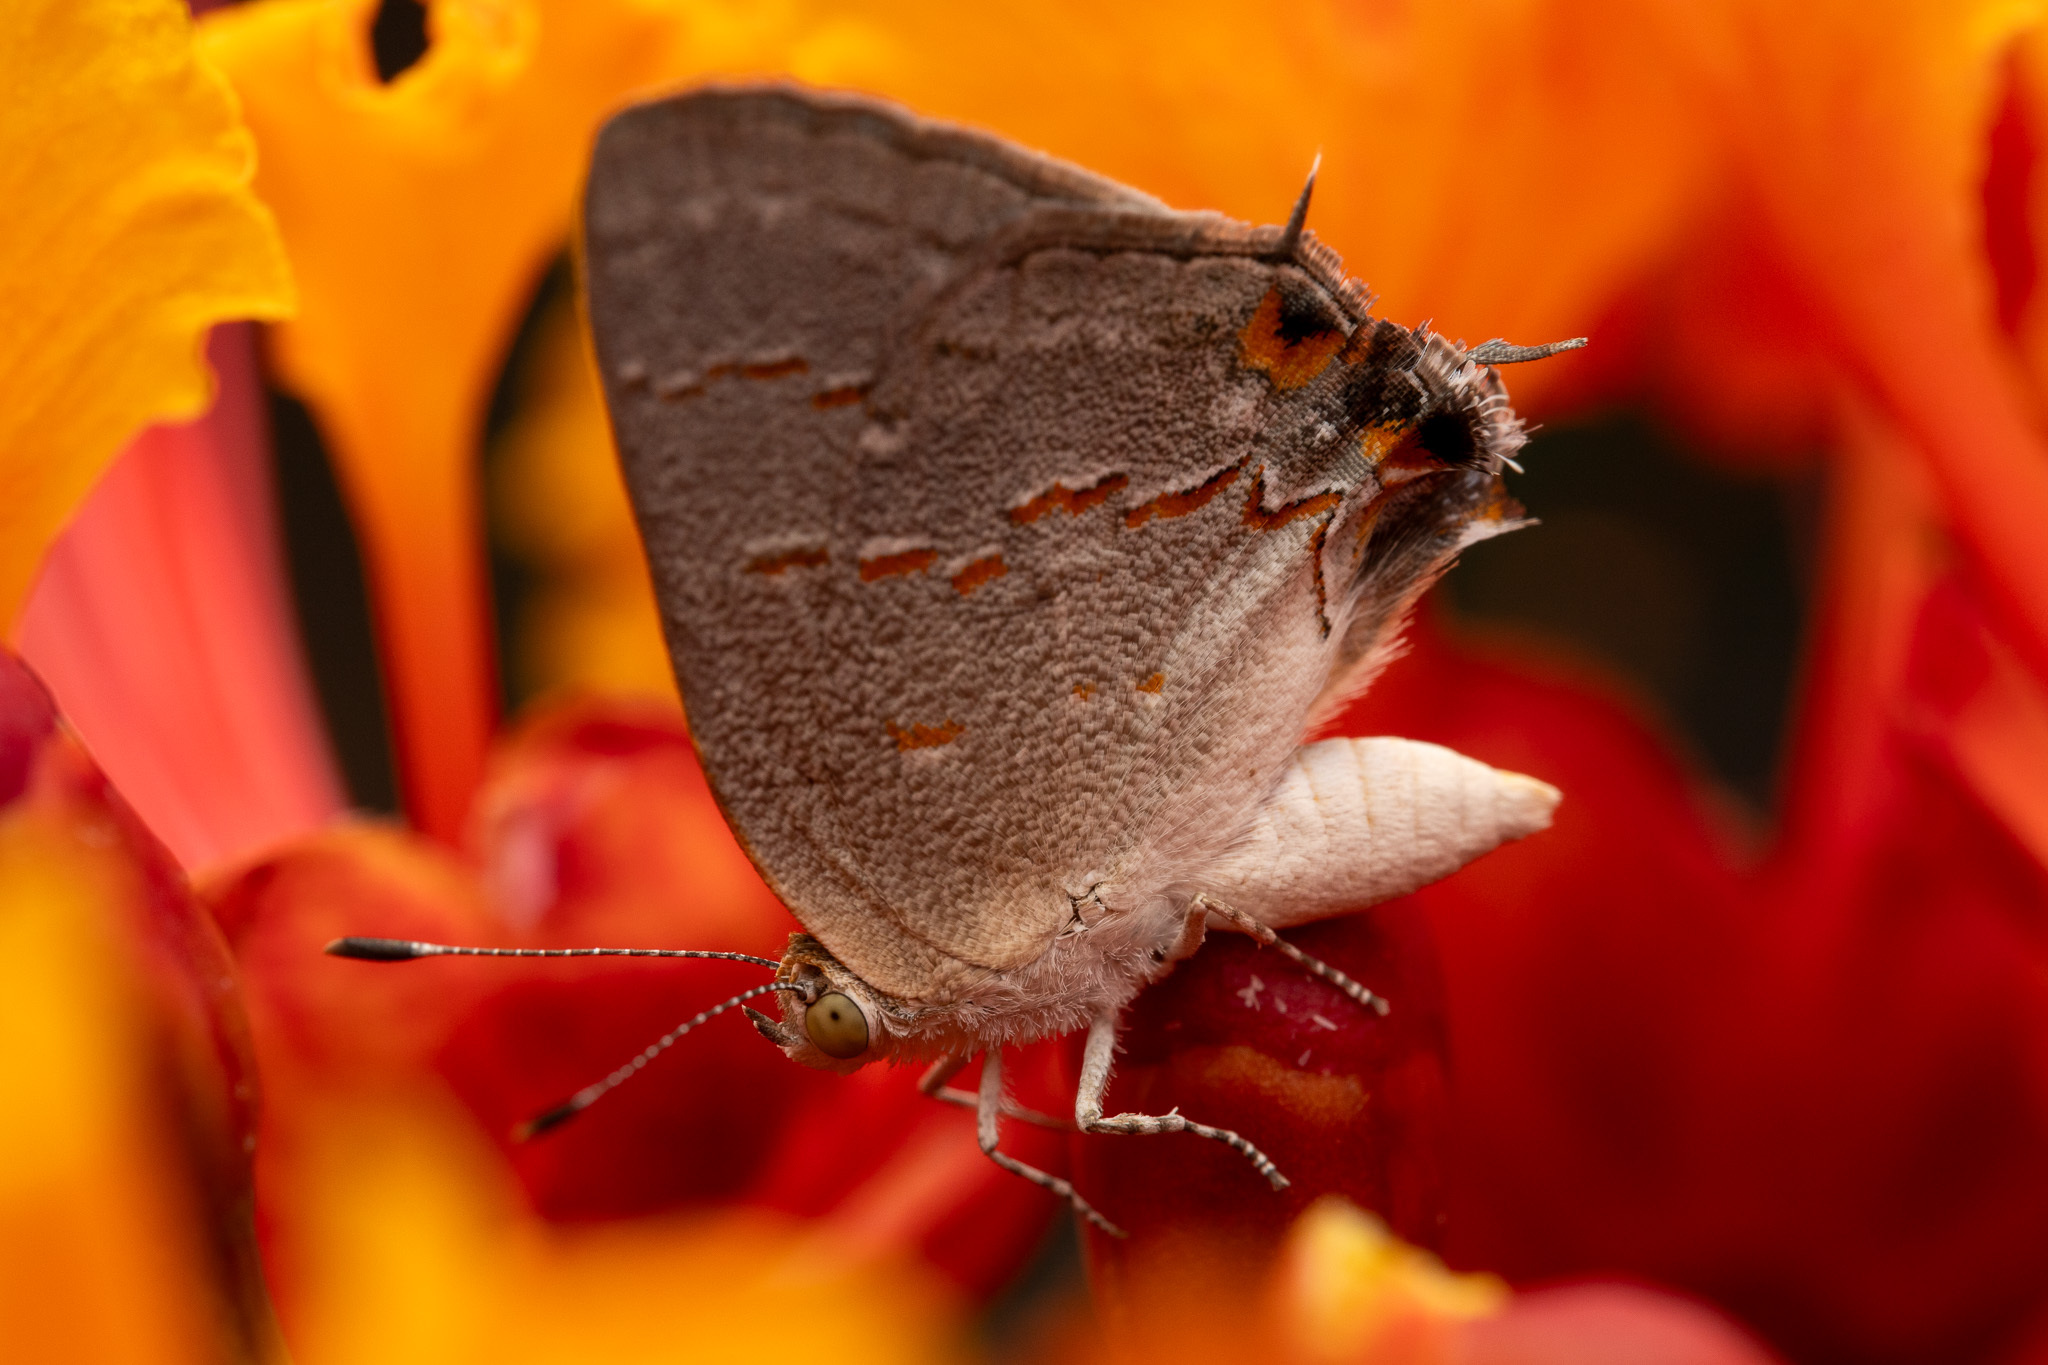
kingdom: Animalia
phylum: Arthropoda
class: Insecta
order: Lepidoptera
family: Lycaenidae
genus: Ministrymon
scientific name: Ministrymon leda
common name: Leda ministreak
